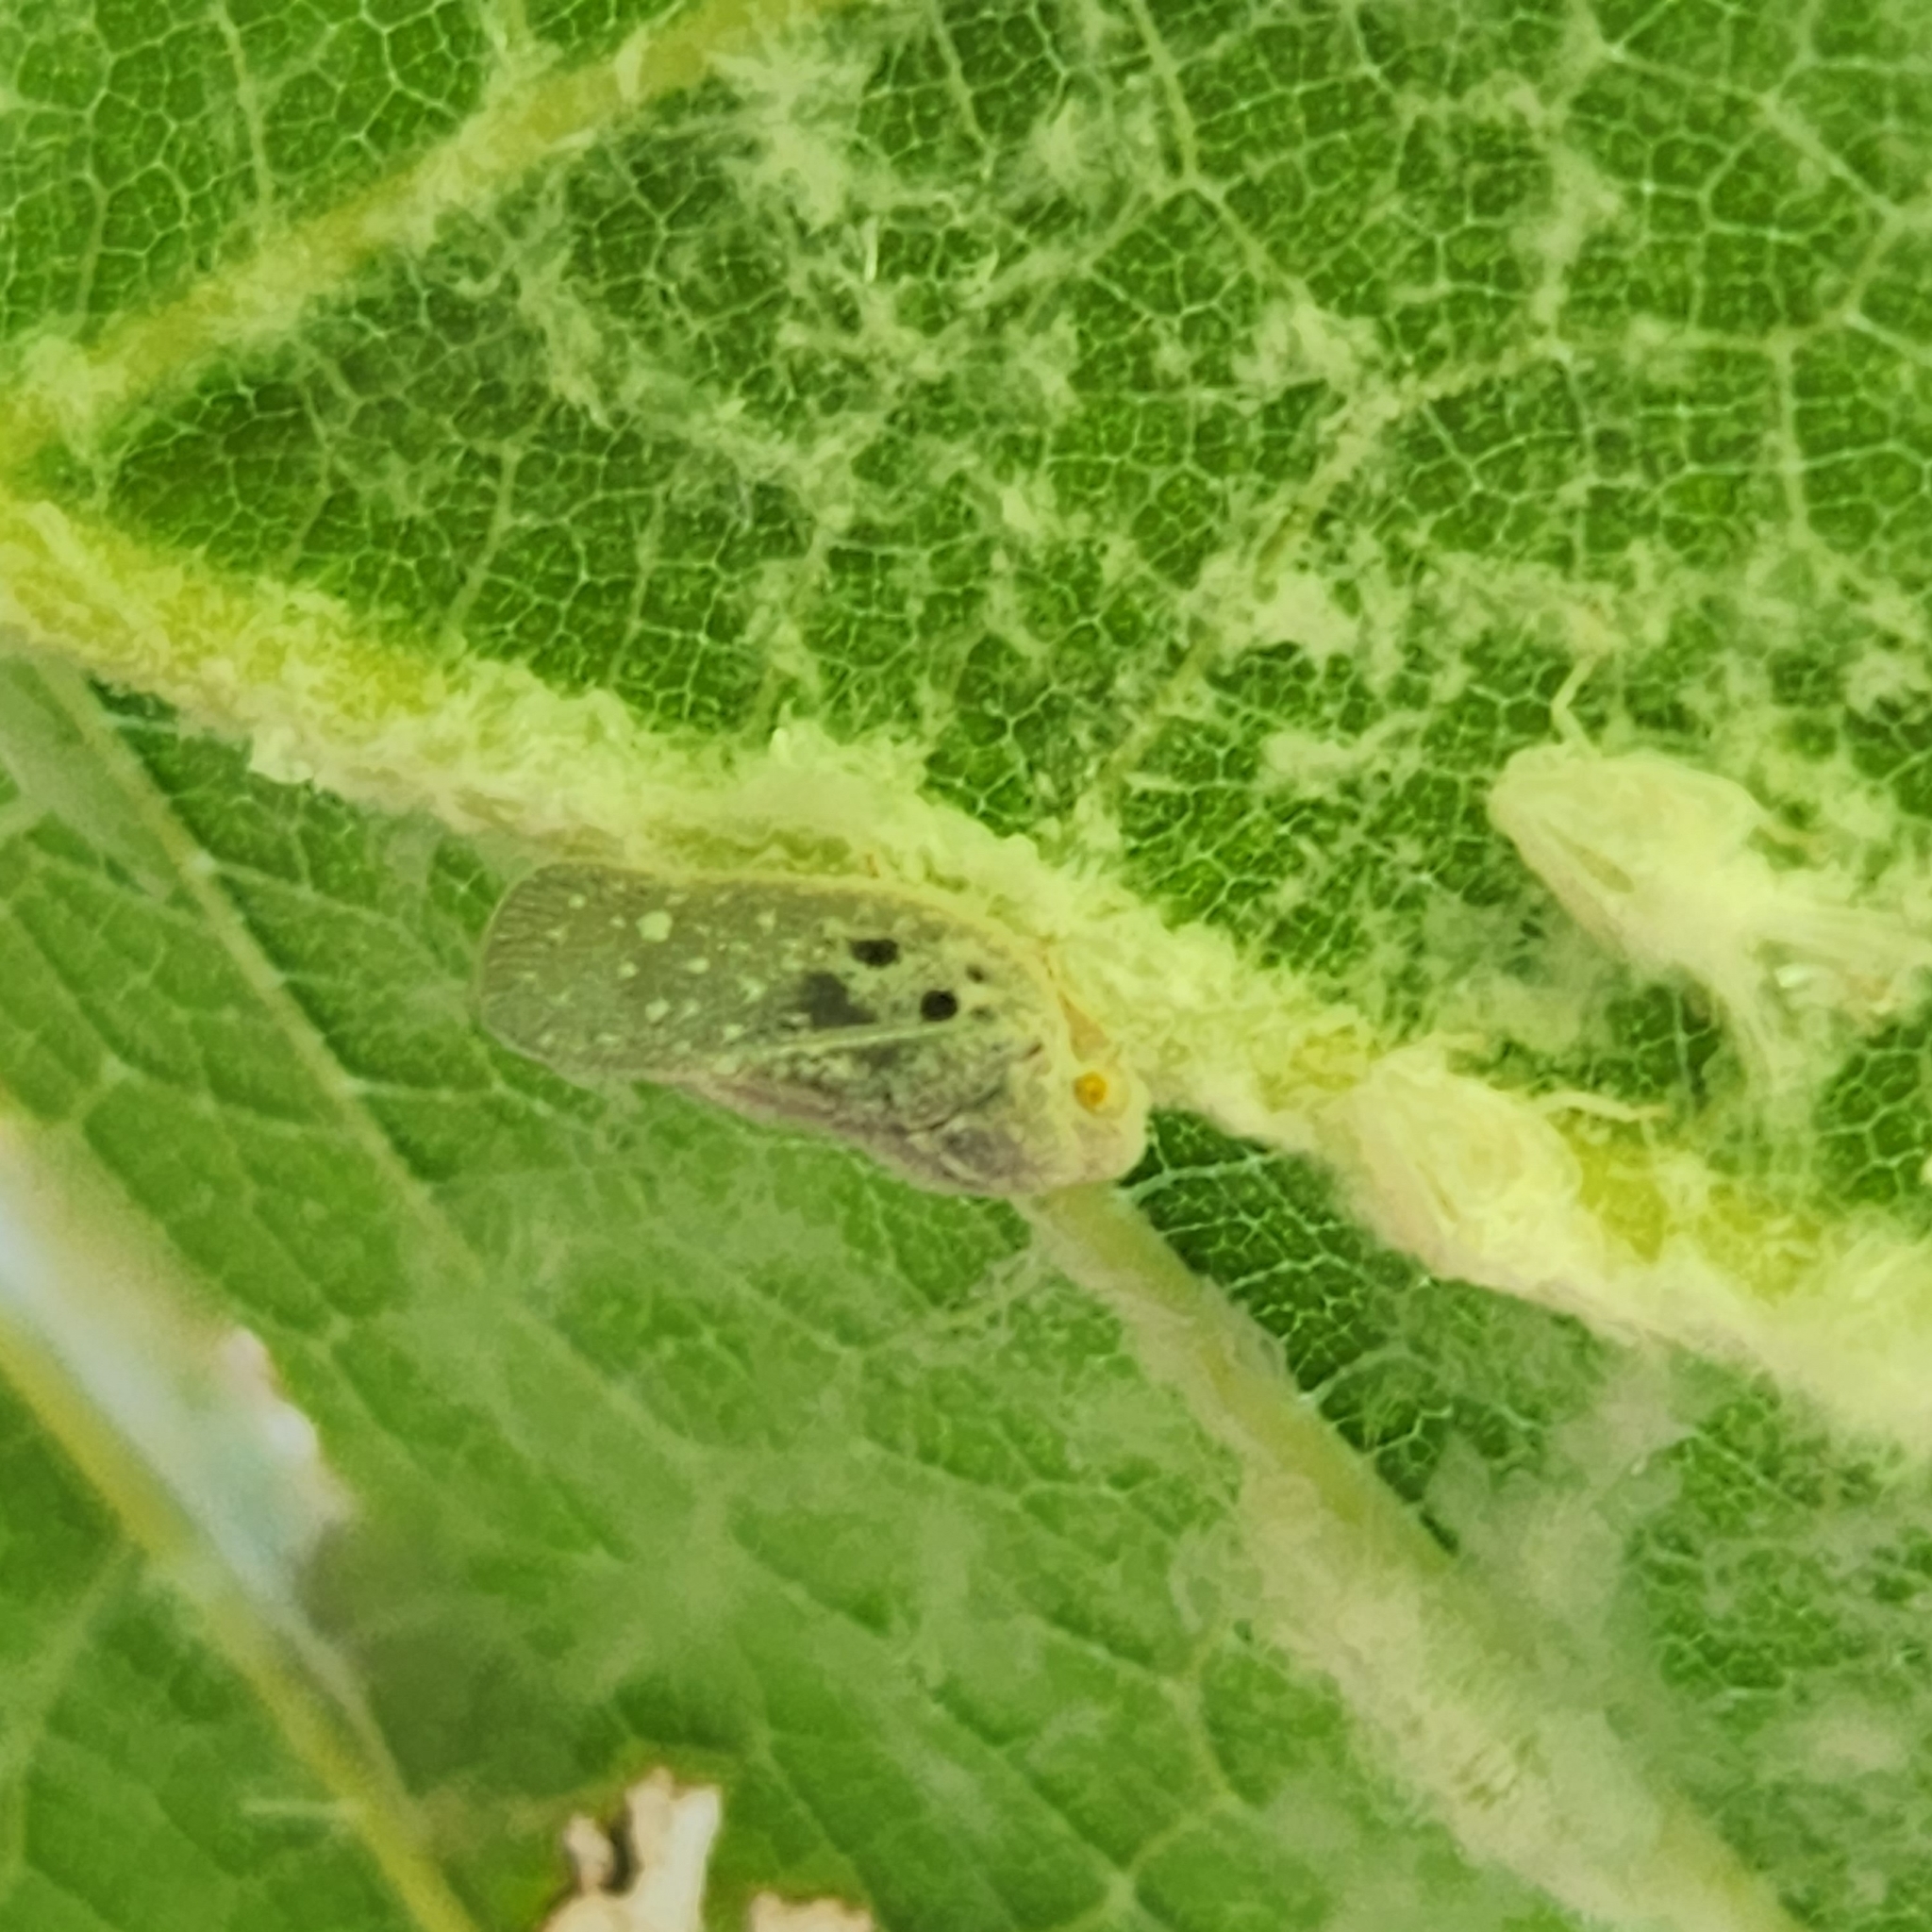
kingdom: Animalia
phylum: Arthropoda
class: Insecta
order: Hemiptera
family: Flatidae
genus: Metcalfa
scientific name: Metcalfa pruinosa
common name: Citrus flatid planthopper
